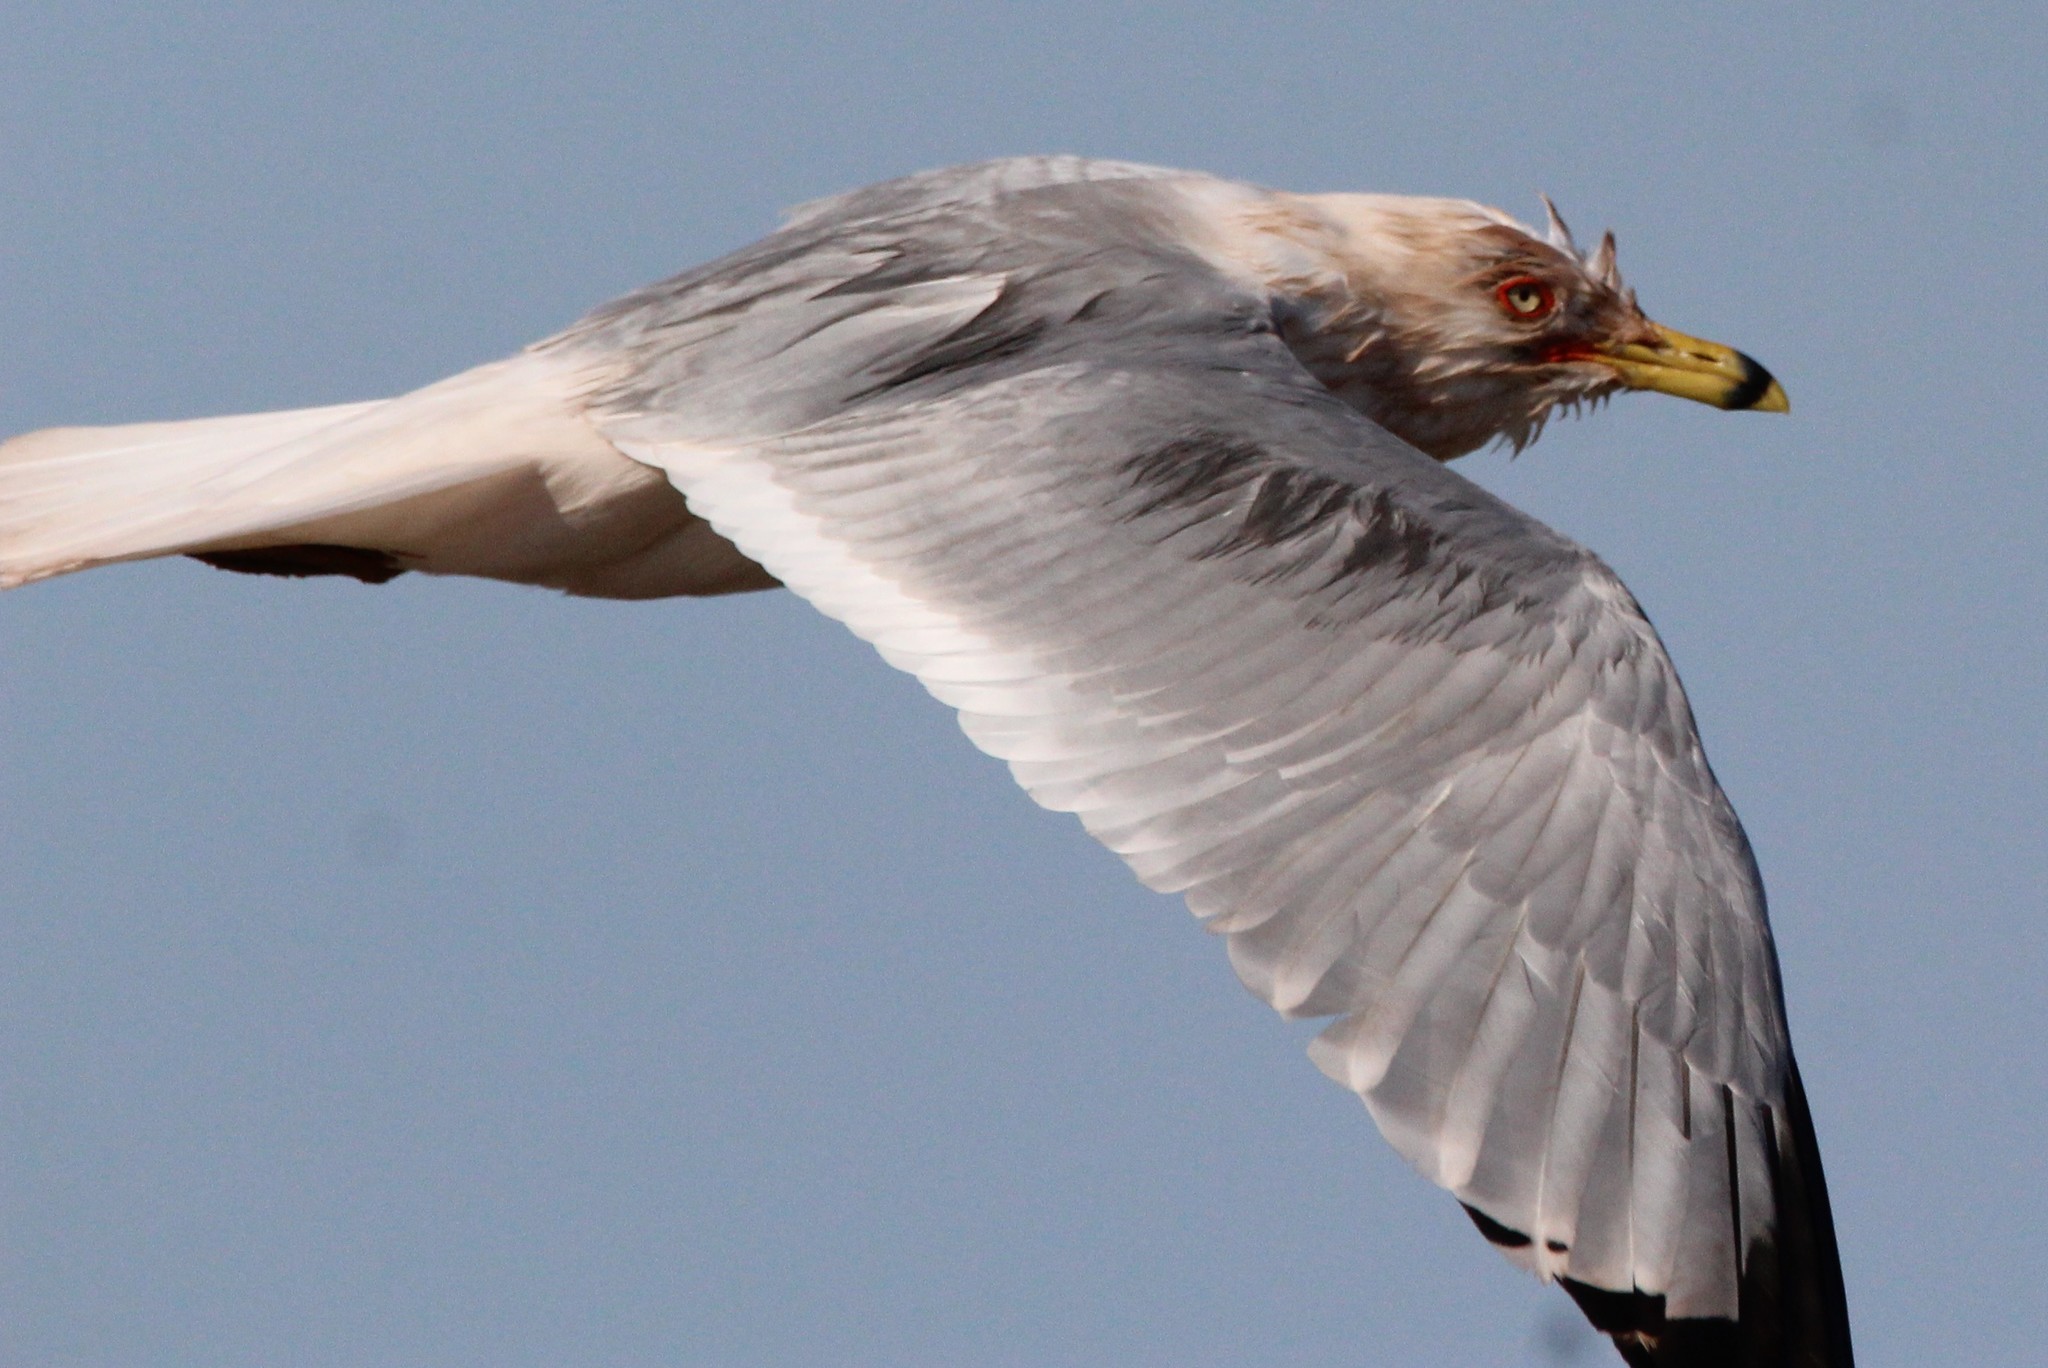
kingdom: Animalia
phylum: Chordata
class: Aves
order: Charadriiformes
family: Laridae
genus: Larus
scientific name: Larus delawarensis
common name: Ring-billed gull
